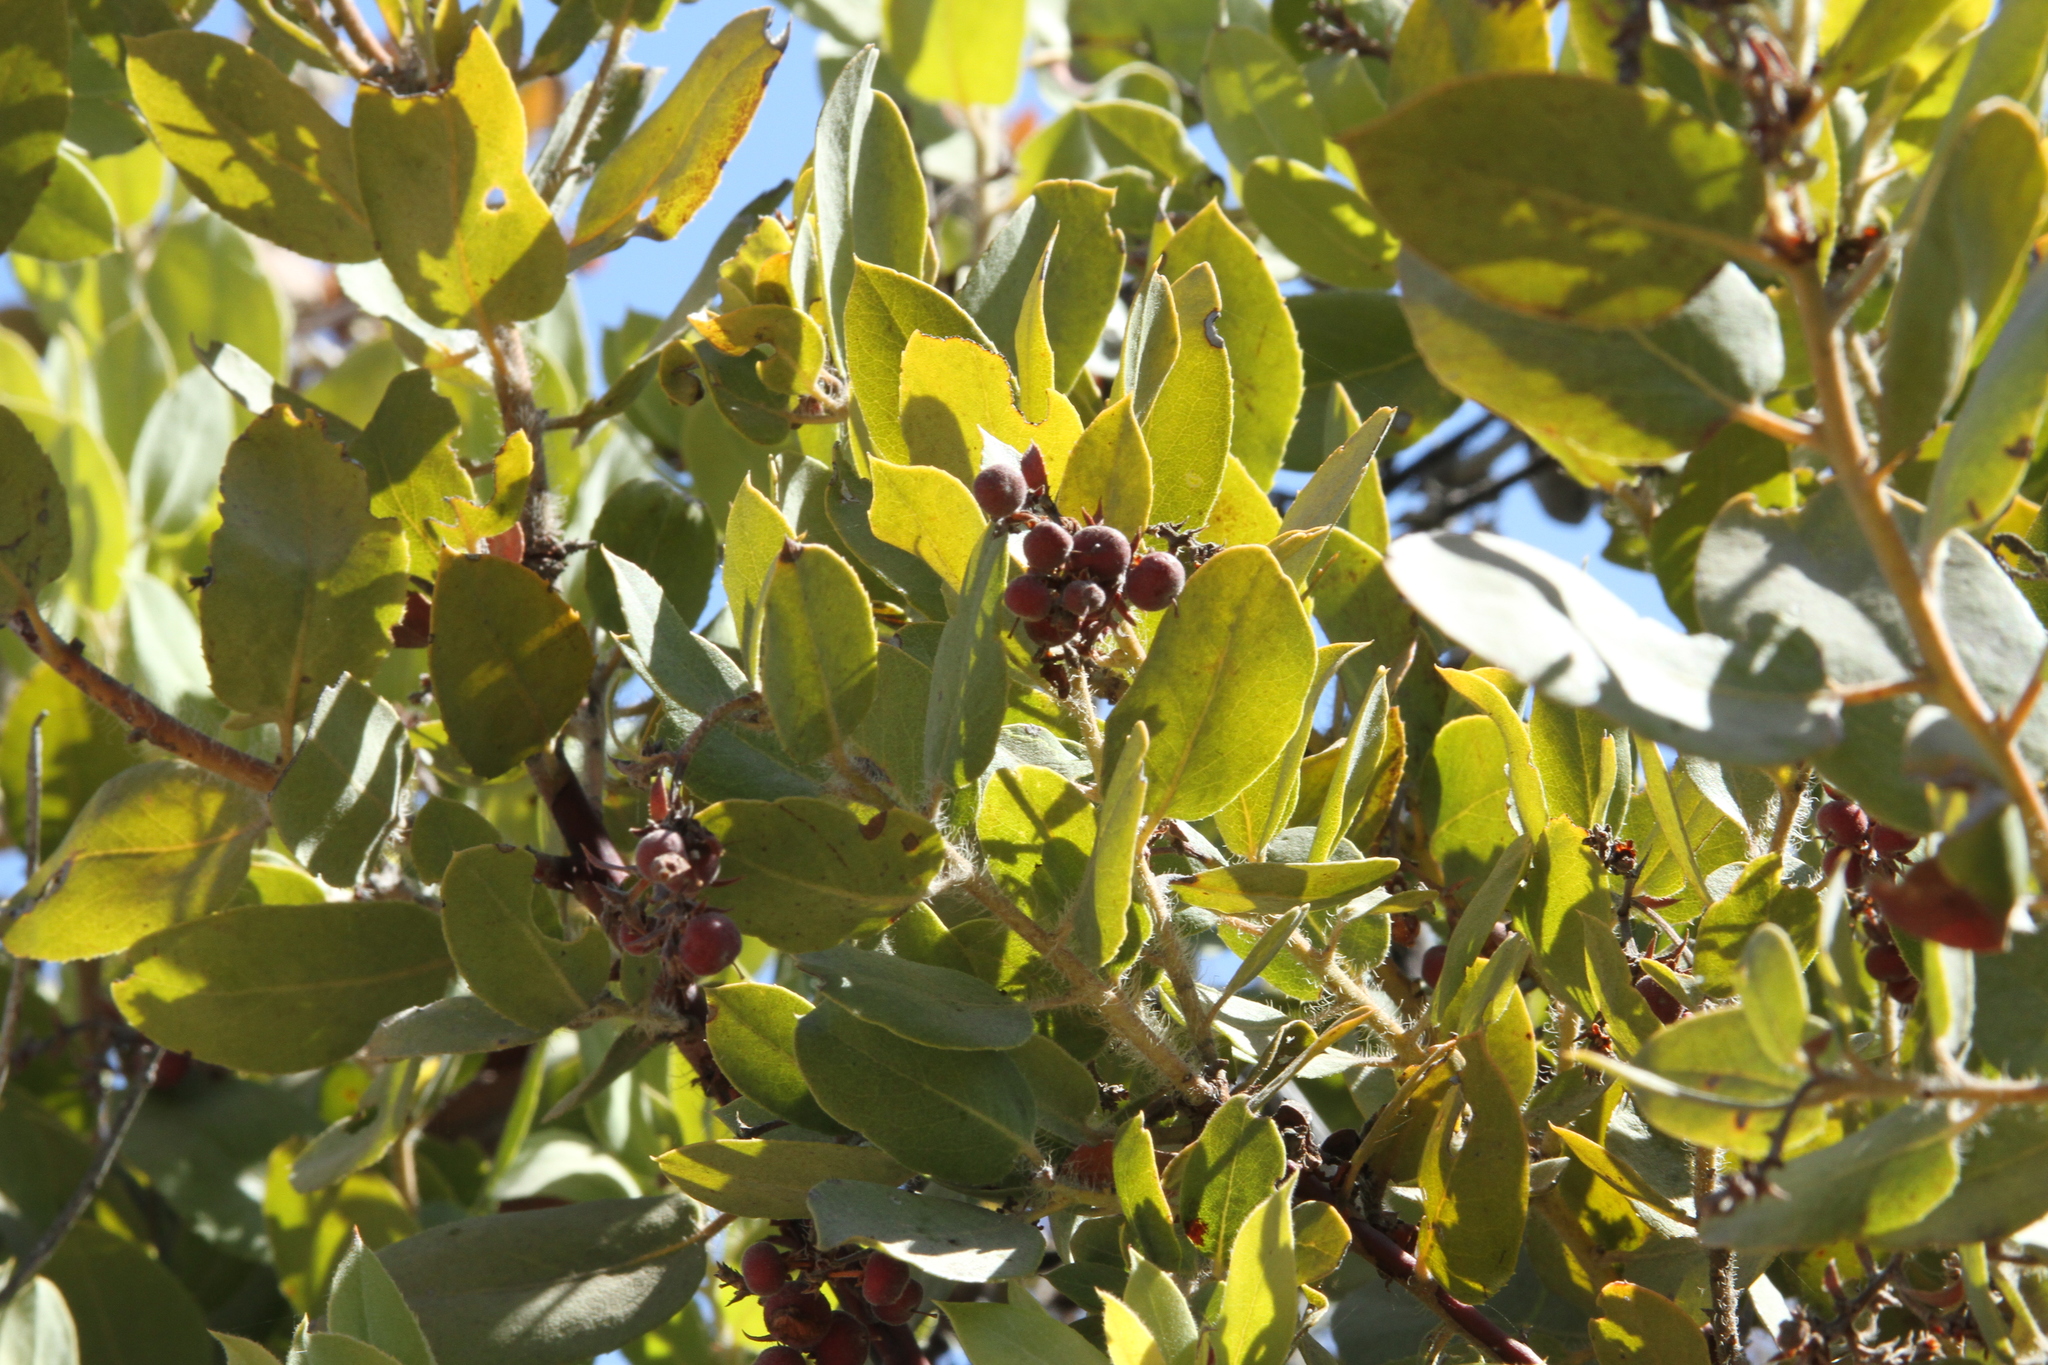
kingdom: Plantae
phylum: Tracheophyta
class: Magnoliopsida
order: Ericales
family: Ericaceae
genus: Arctostaphylos
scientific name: Arctostaphylos crustacea
